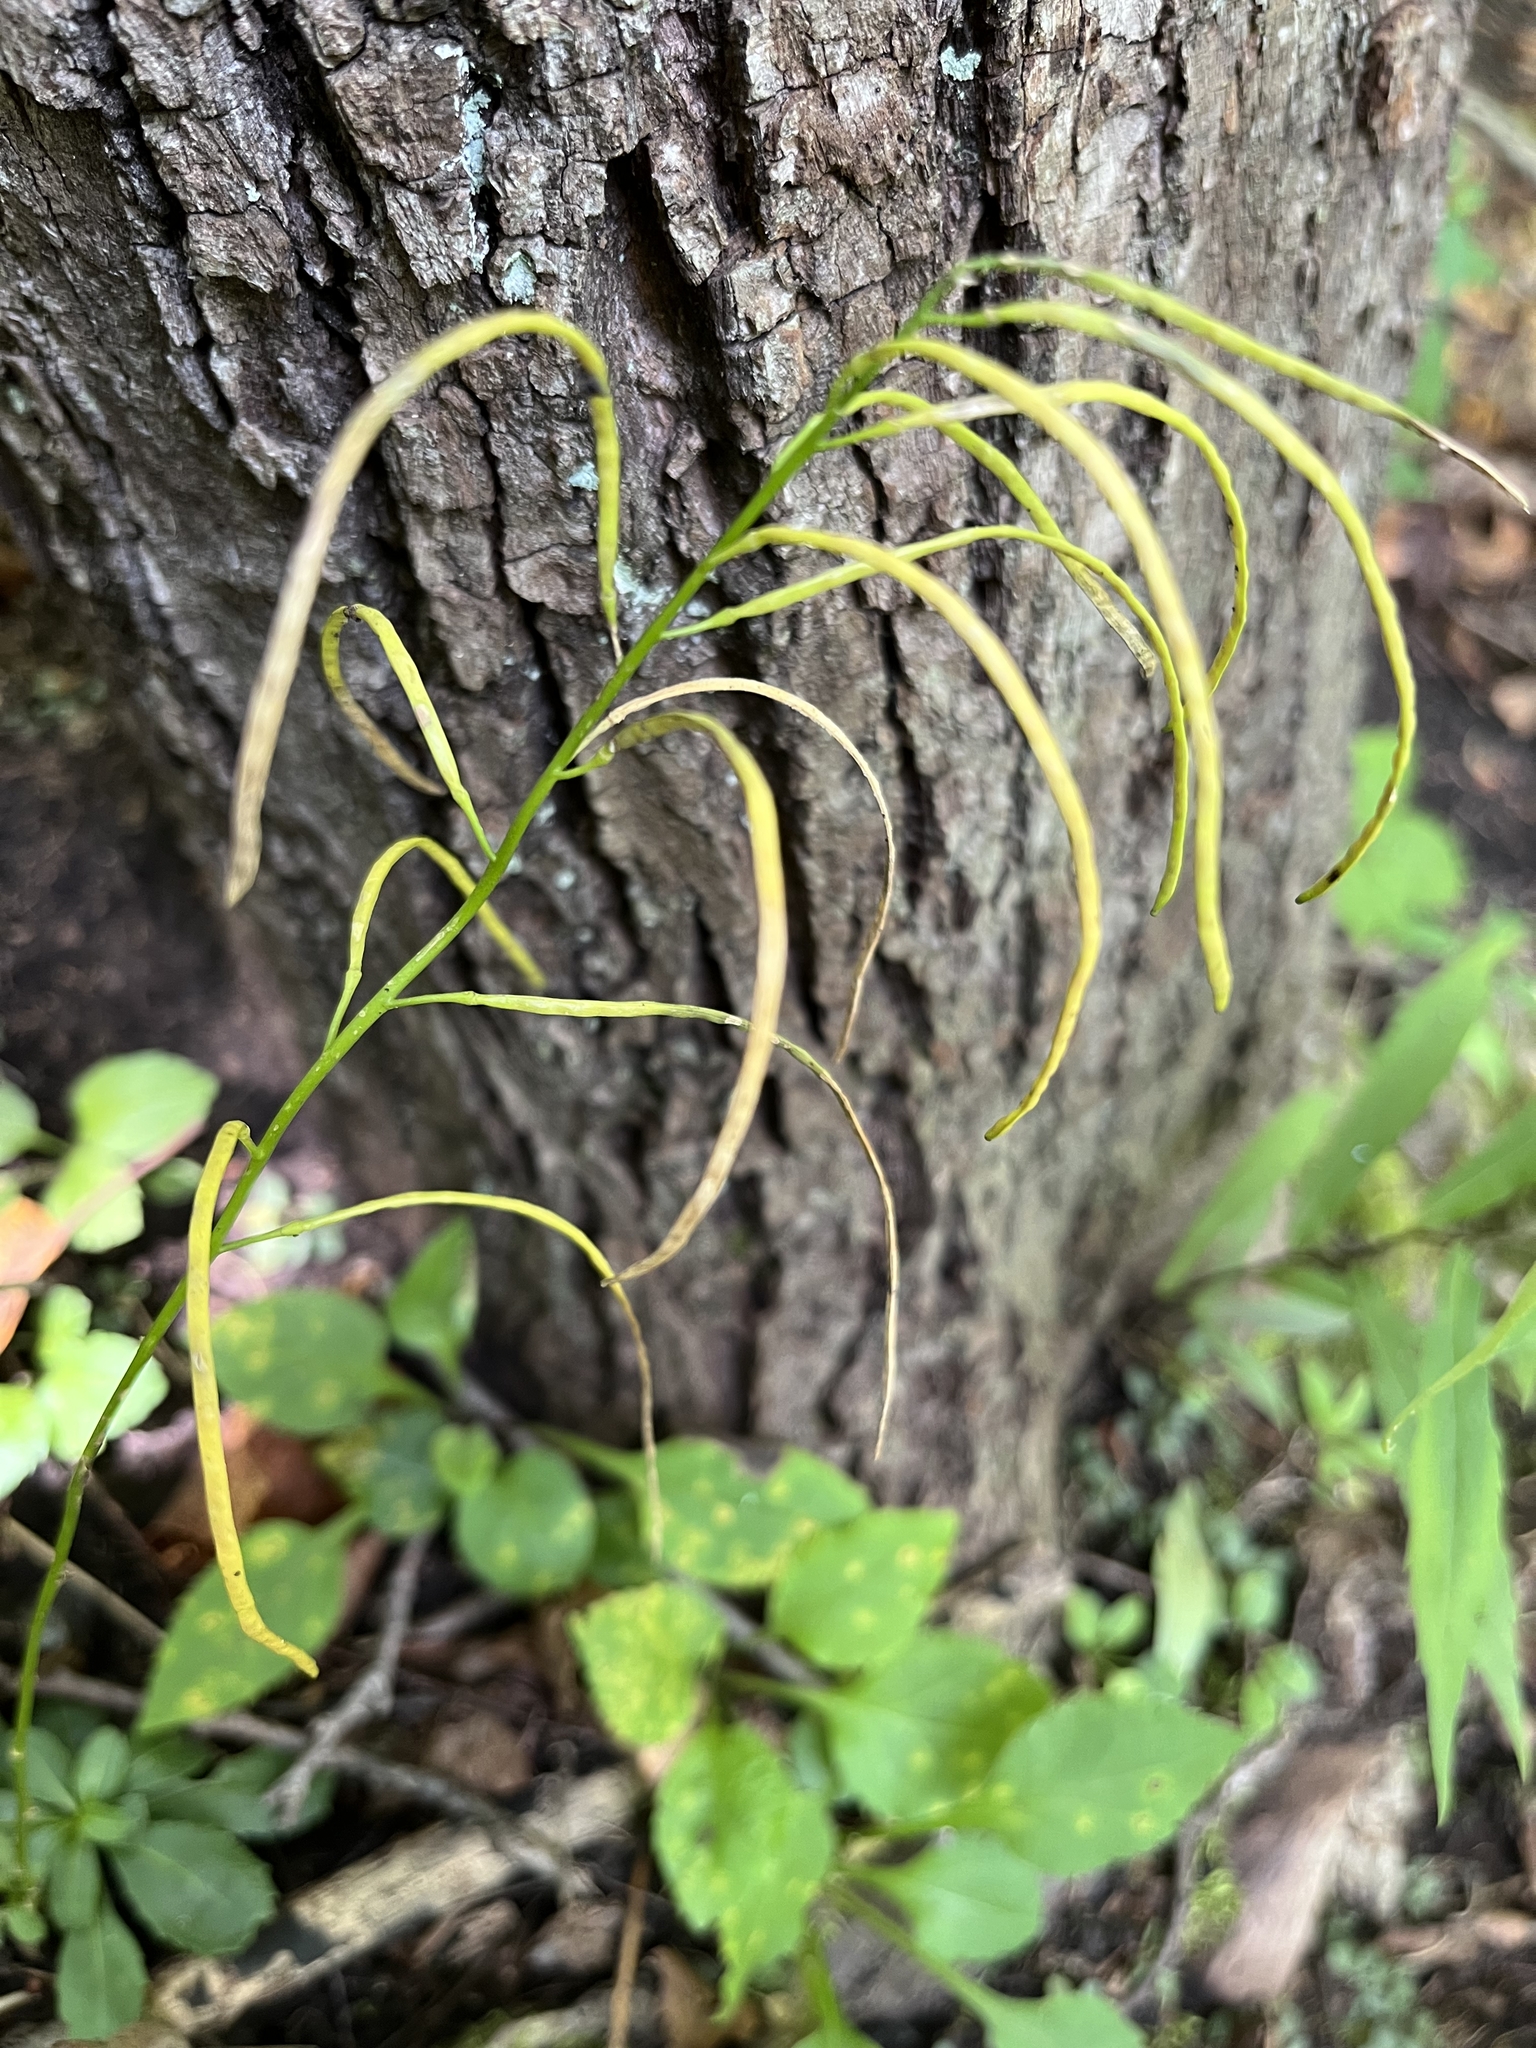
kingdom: Plantae
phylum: Tracheophyta
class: Magnoliopsida
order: Brassicales
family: Brassicaceae
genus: Borodinia
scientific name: Borodinia laevigata
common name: Smooth rockcress
